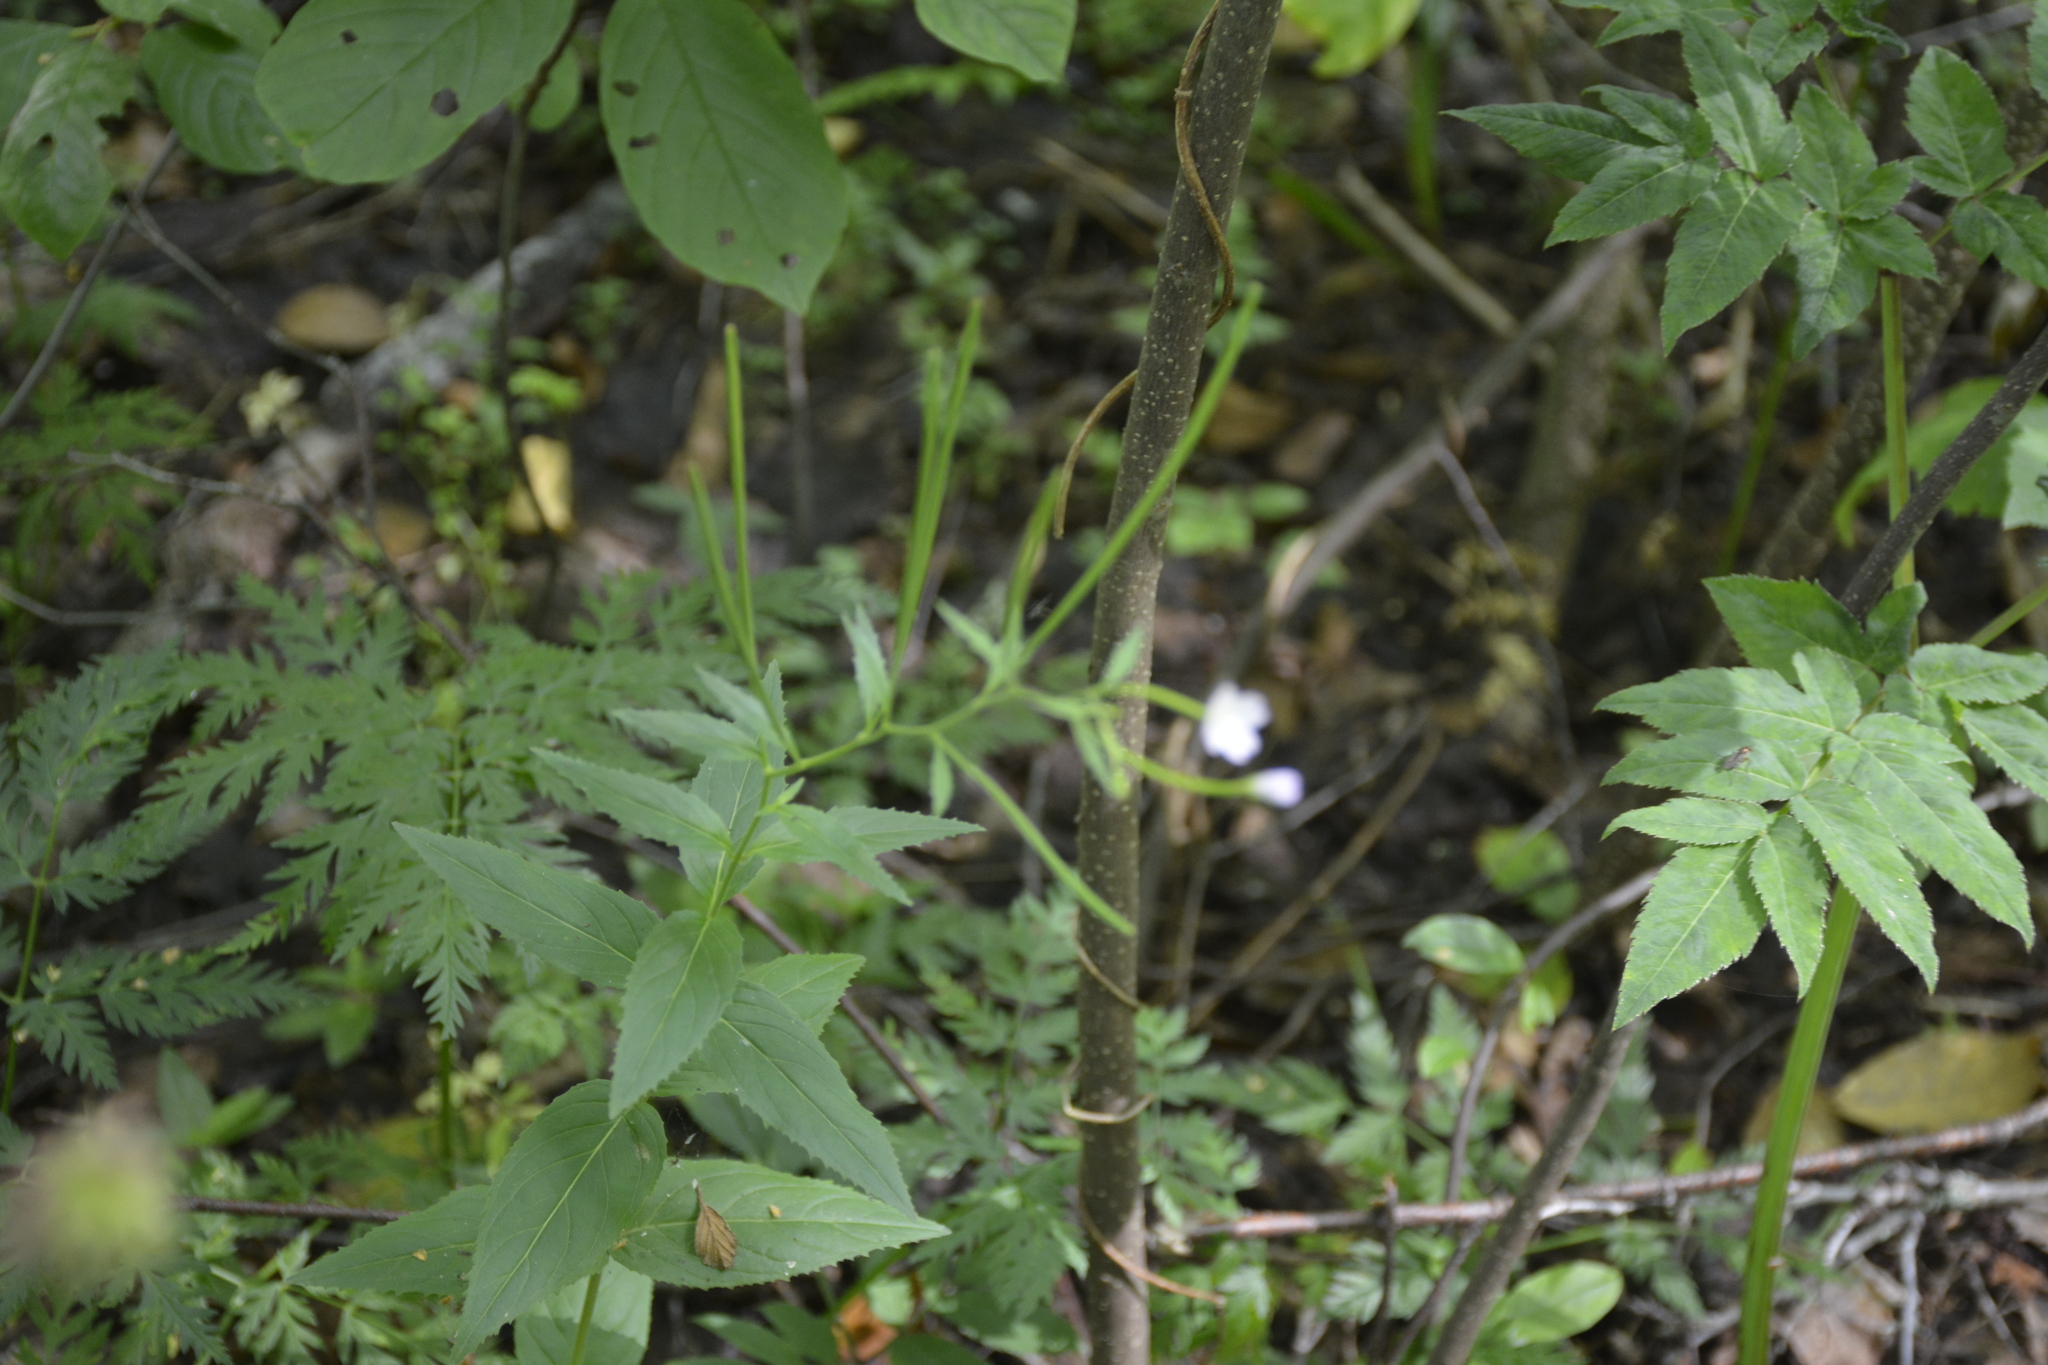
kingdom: Plantae
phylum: Tracheophyta
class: Magnoliopsida
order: Myrtales
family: Onagraceae
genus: Epilobium
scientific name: Epilobium montanum
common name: Broad-leaved willowherb
